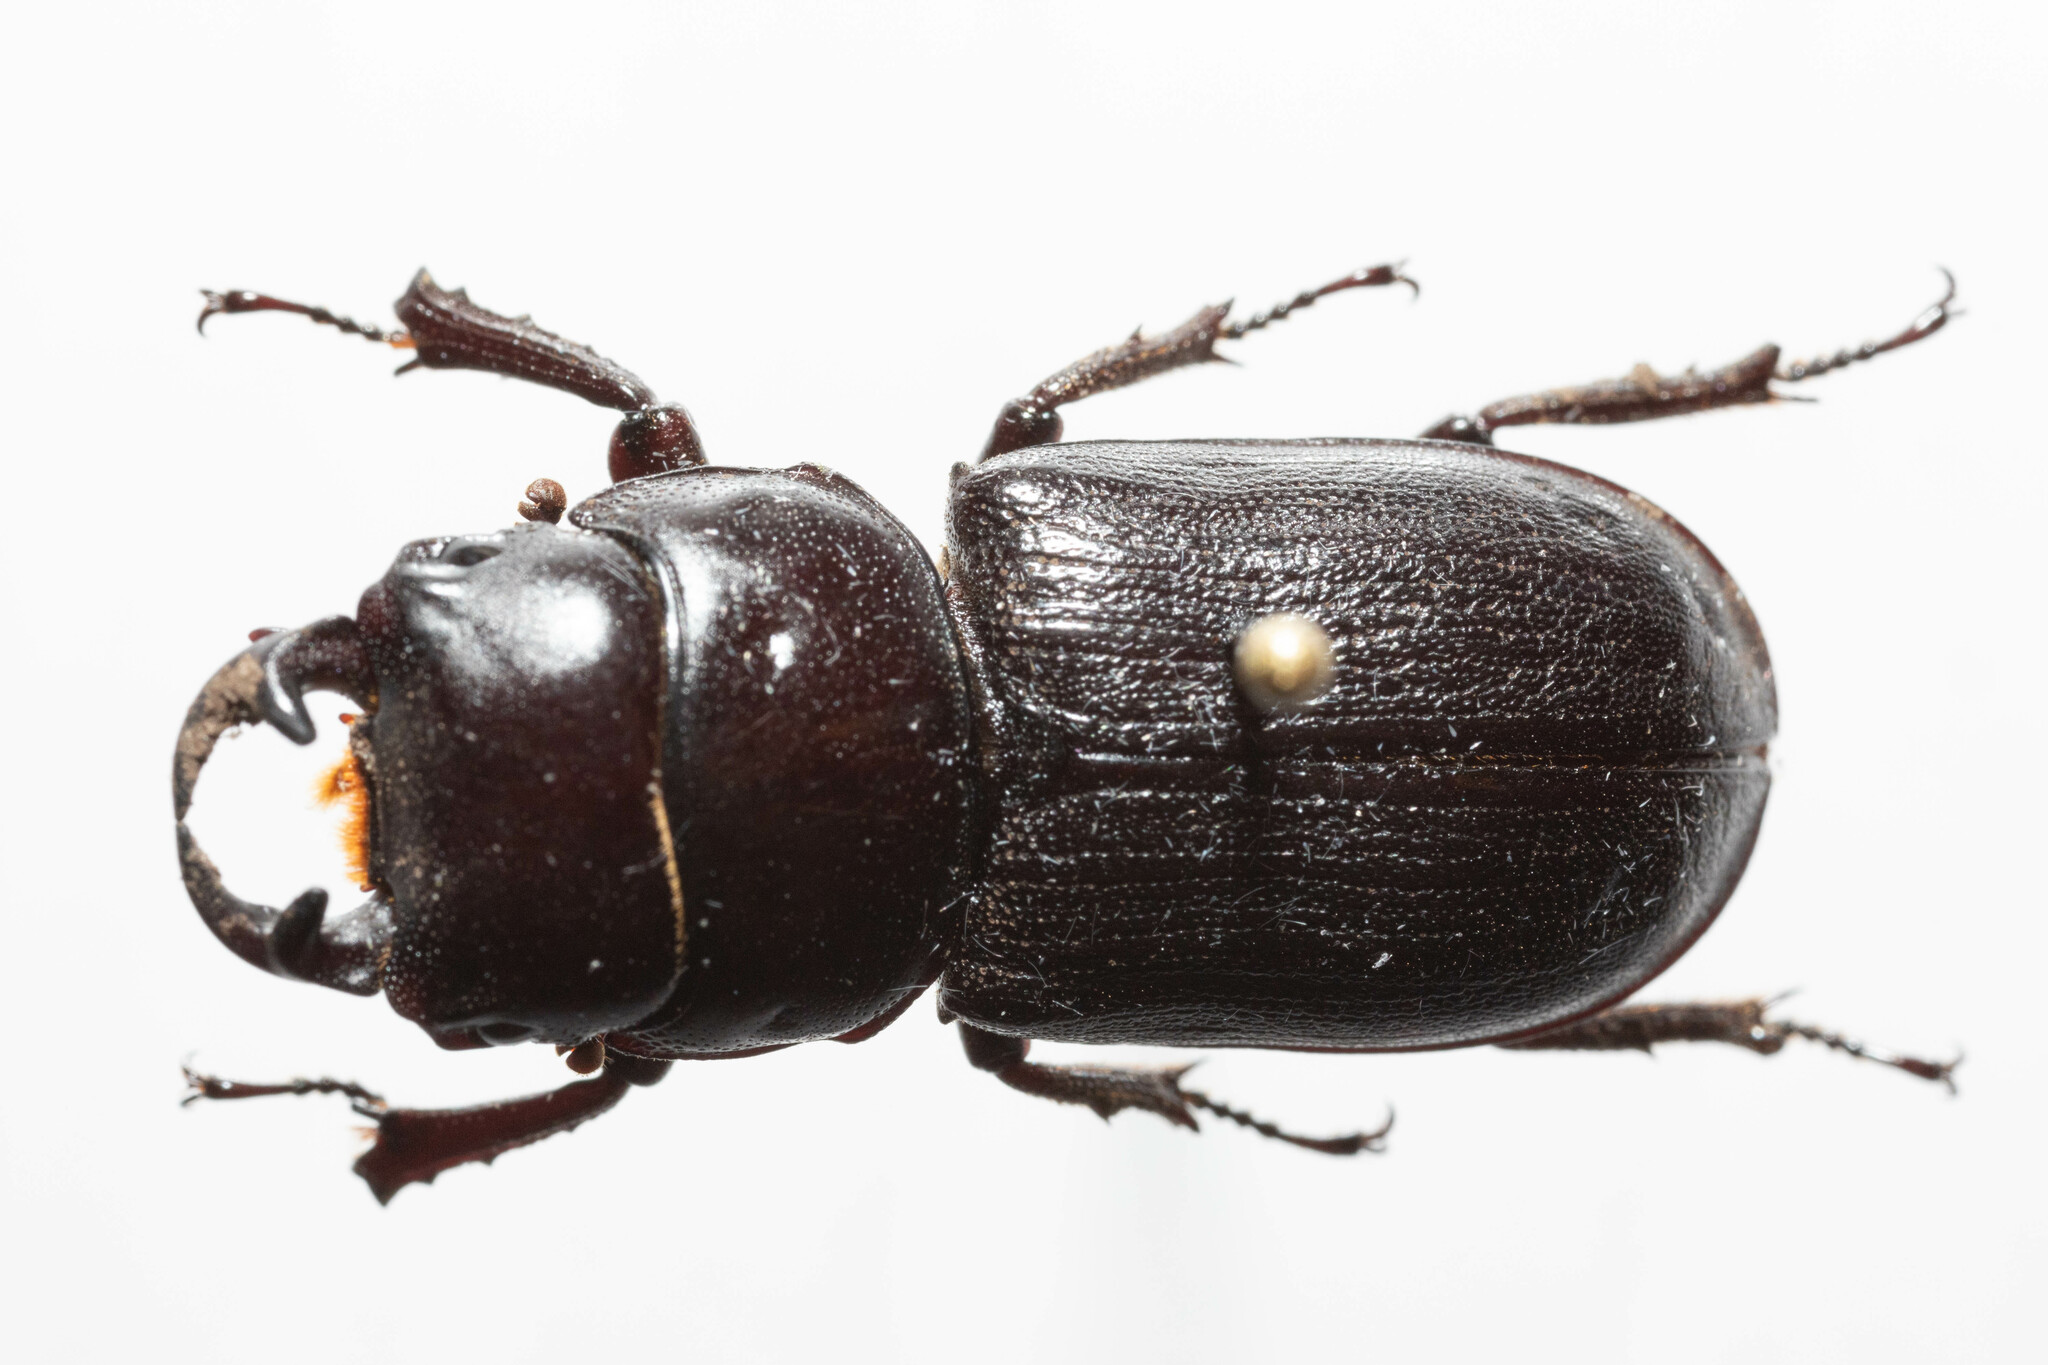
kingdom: Animalia
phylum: Arthropoda
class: Insecta
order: Coleoptera
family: Lucanidae
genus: Dorcus
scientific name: Dorcus parallelus
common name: Antelope beetle
